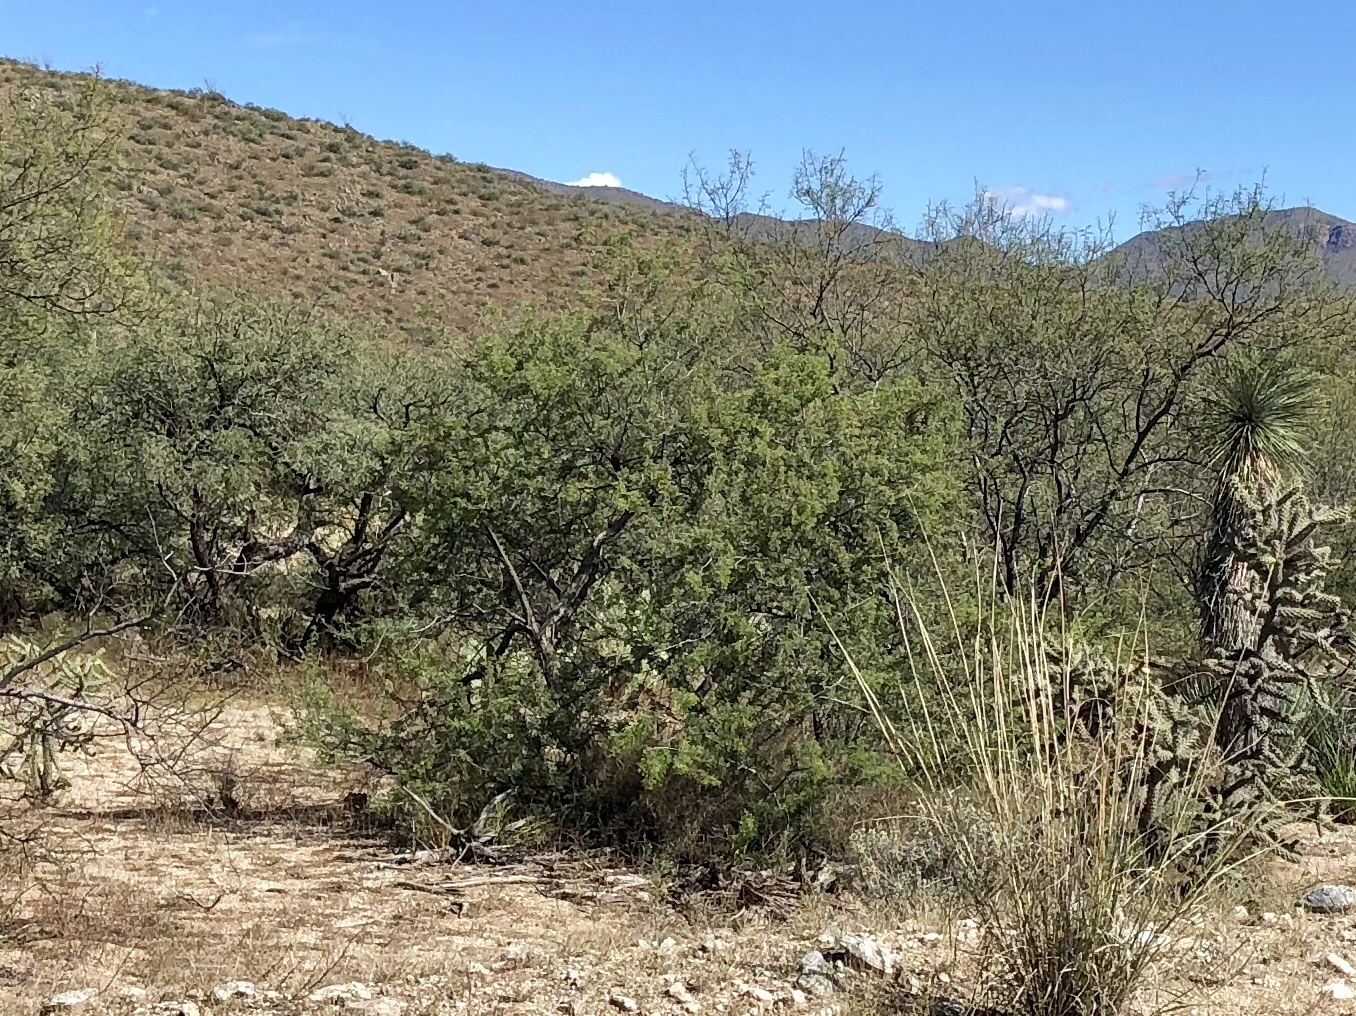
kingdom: Plantae
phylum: Tracheophyta
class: Magnoliopsida
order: Zygophyllales
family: Zygophyllaceae
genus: Larrea
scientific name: Larrea tridentata
